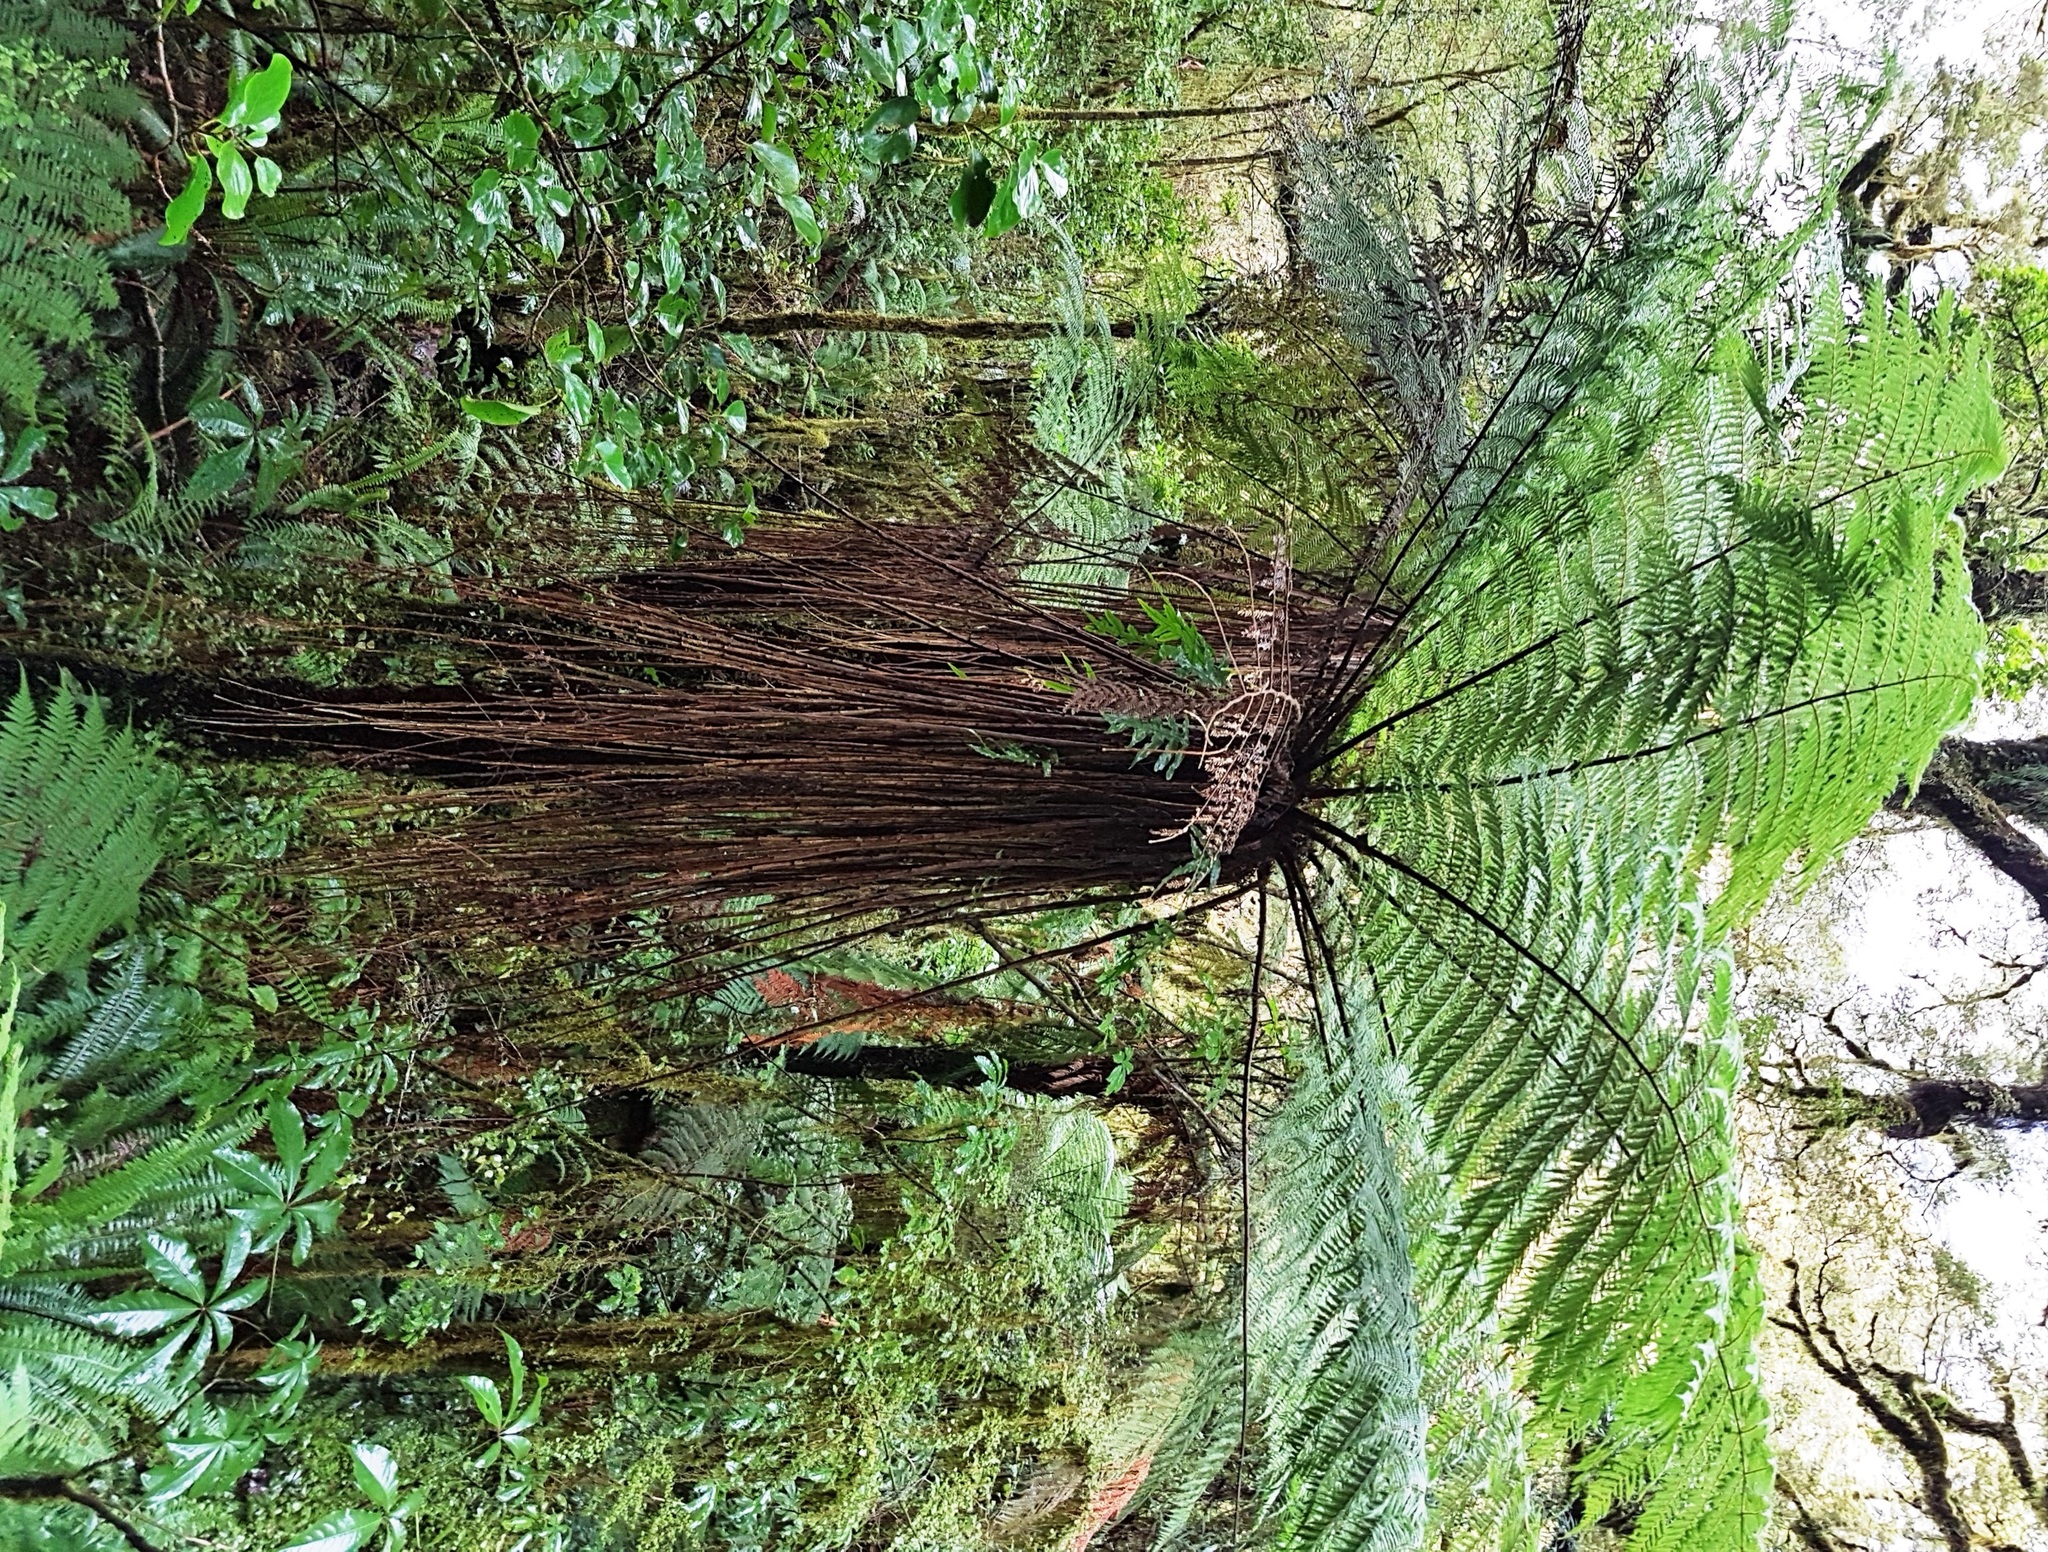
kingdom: Plantae
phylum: Tracheophyta
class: Polypodiopsida
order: Cyatheales
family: Cyatheaceae
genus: Alsophila
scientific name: Alsophila smithii
